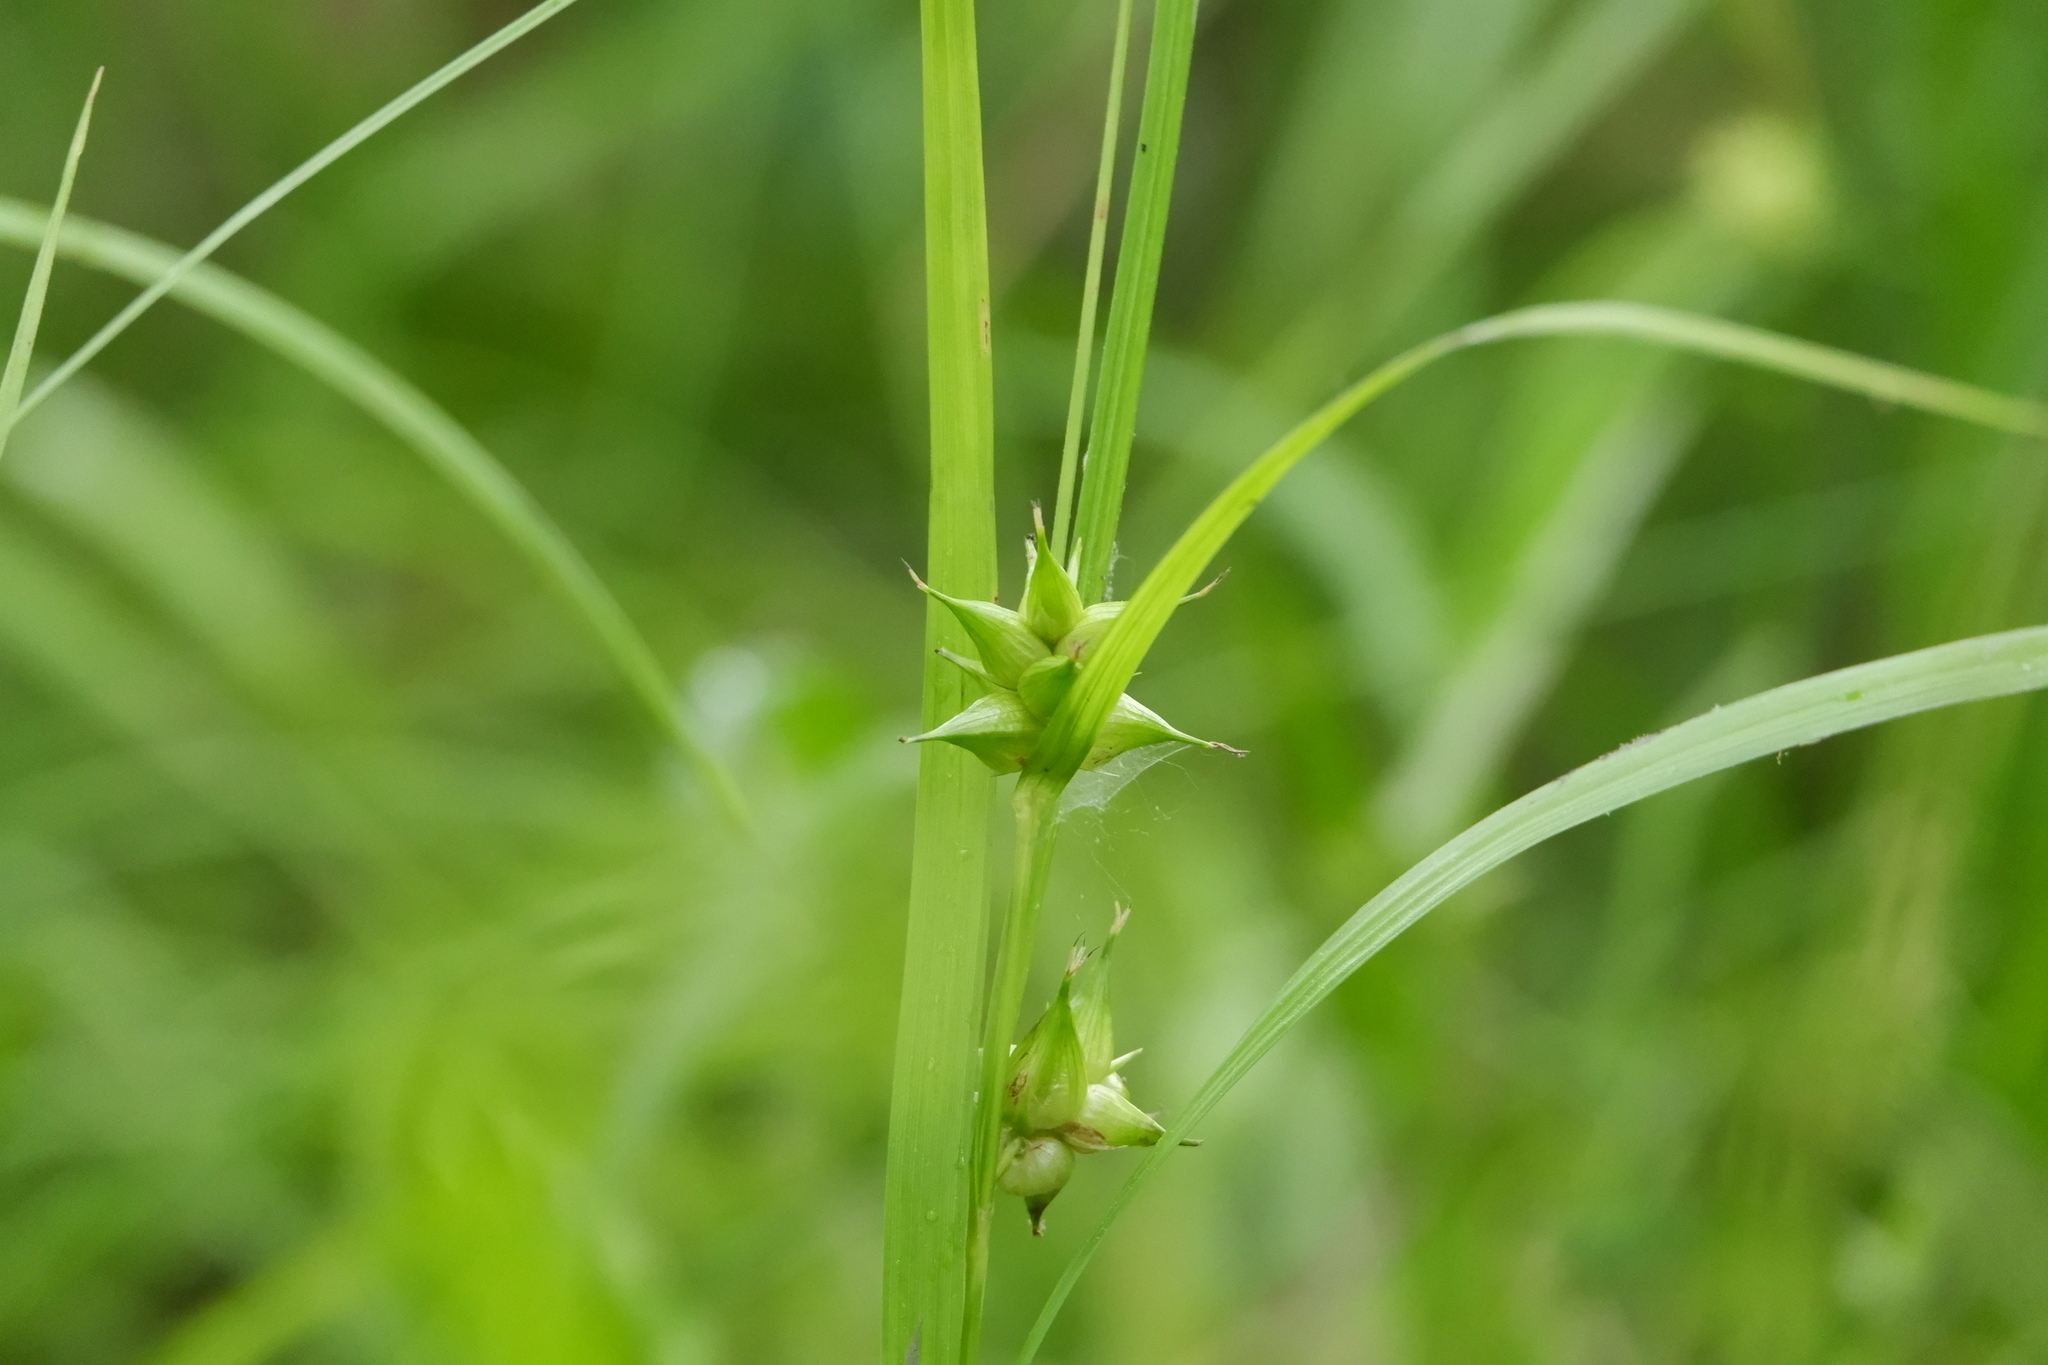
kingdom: Plantae
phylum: Tracheophyta
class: Liliopsida
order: Poales
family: Cyperaceae
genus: Carex
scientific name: Carex intumescens
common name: Greater bladder sedge
